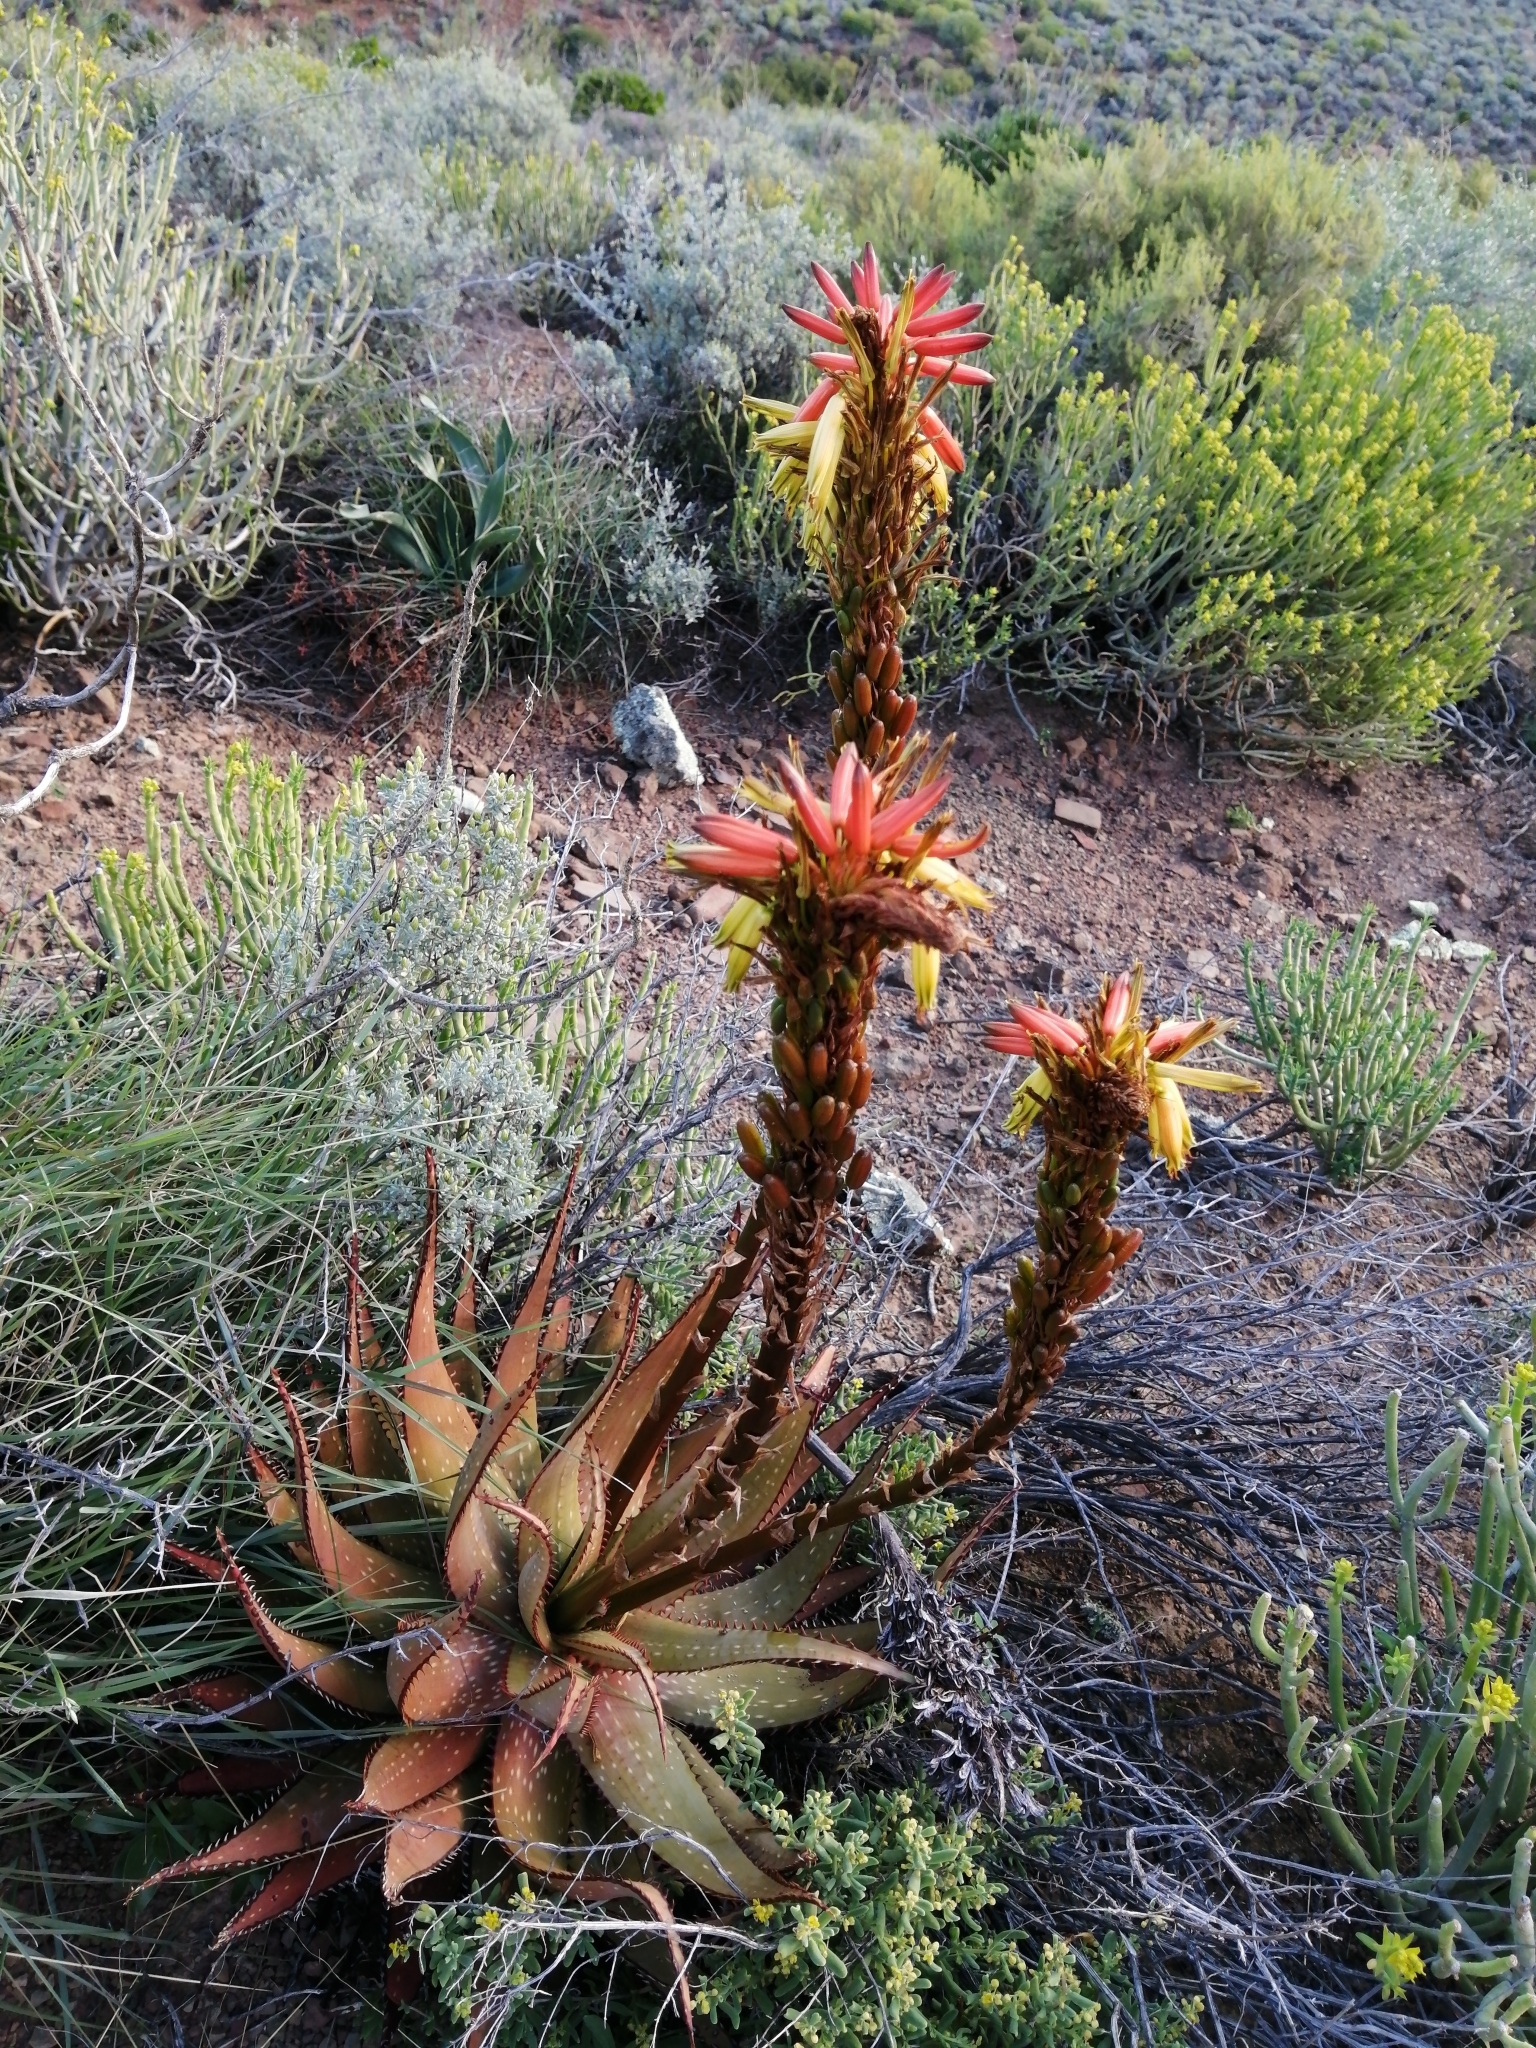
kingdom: Plantae
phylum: Tracheophyta
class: Liliopsida
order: Asparagales
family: Asphodelaceae
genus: Aloe
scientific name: Aloe microstigma
